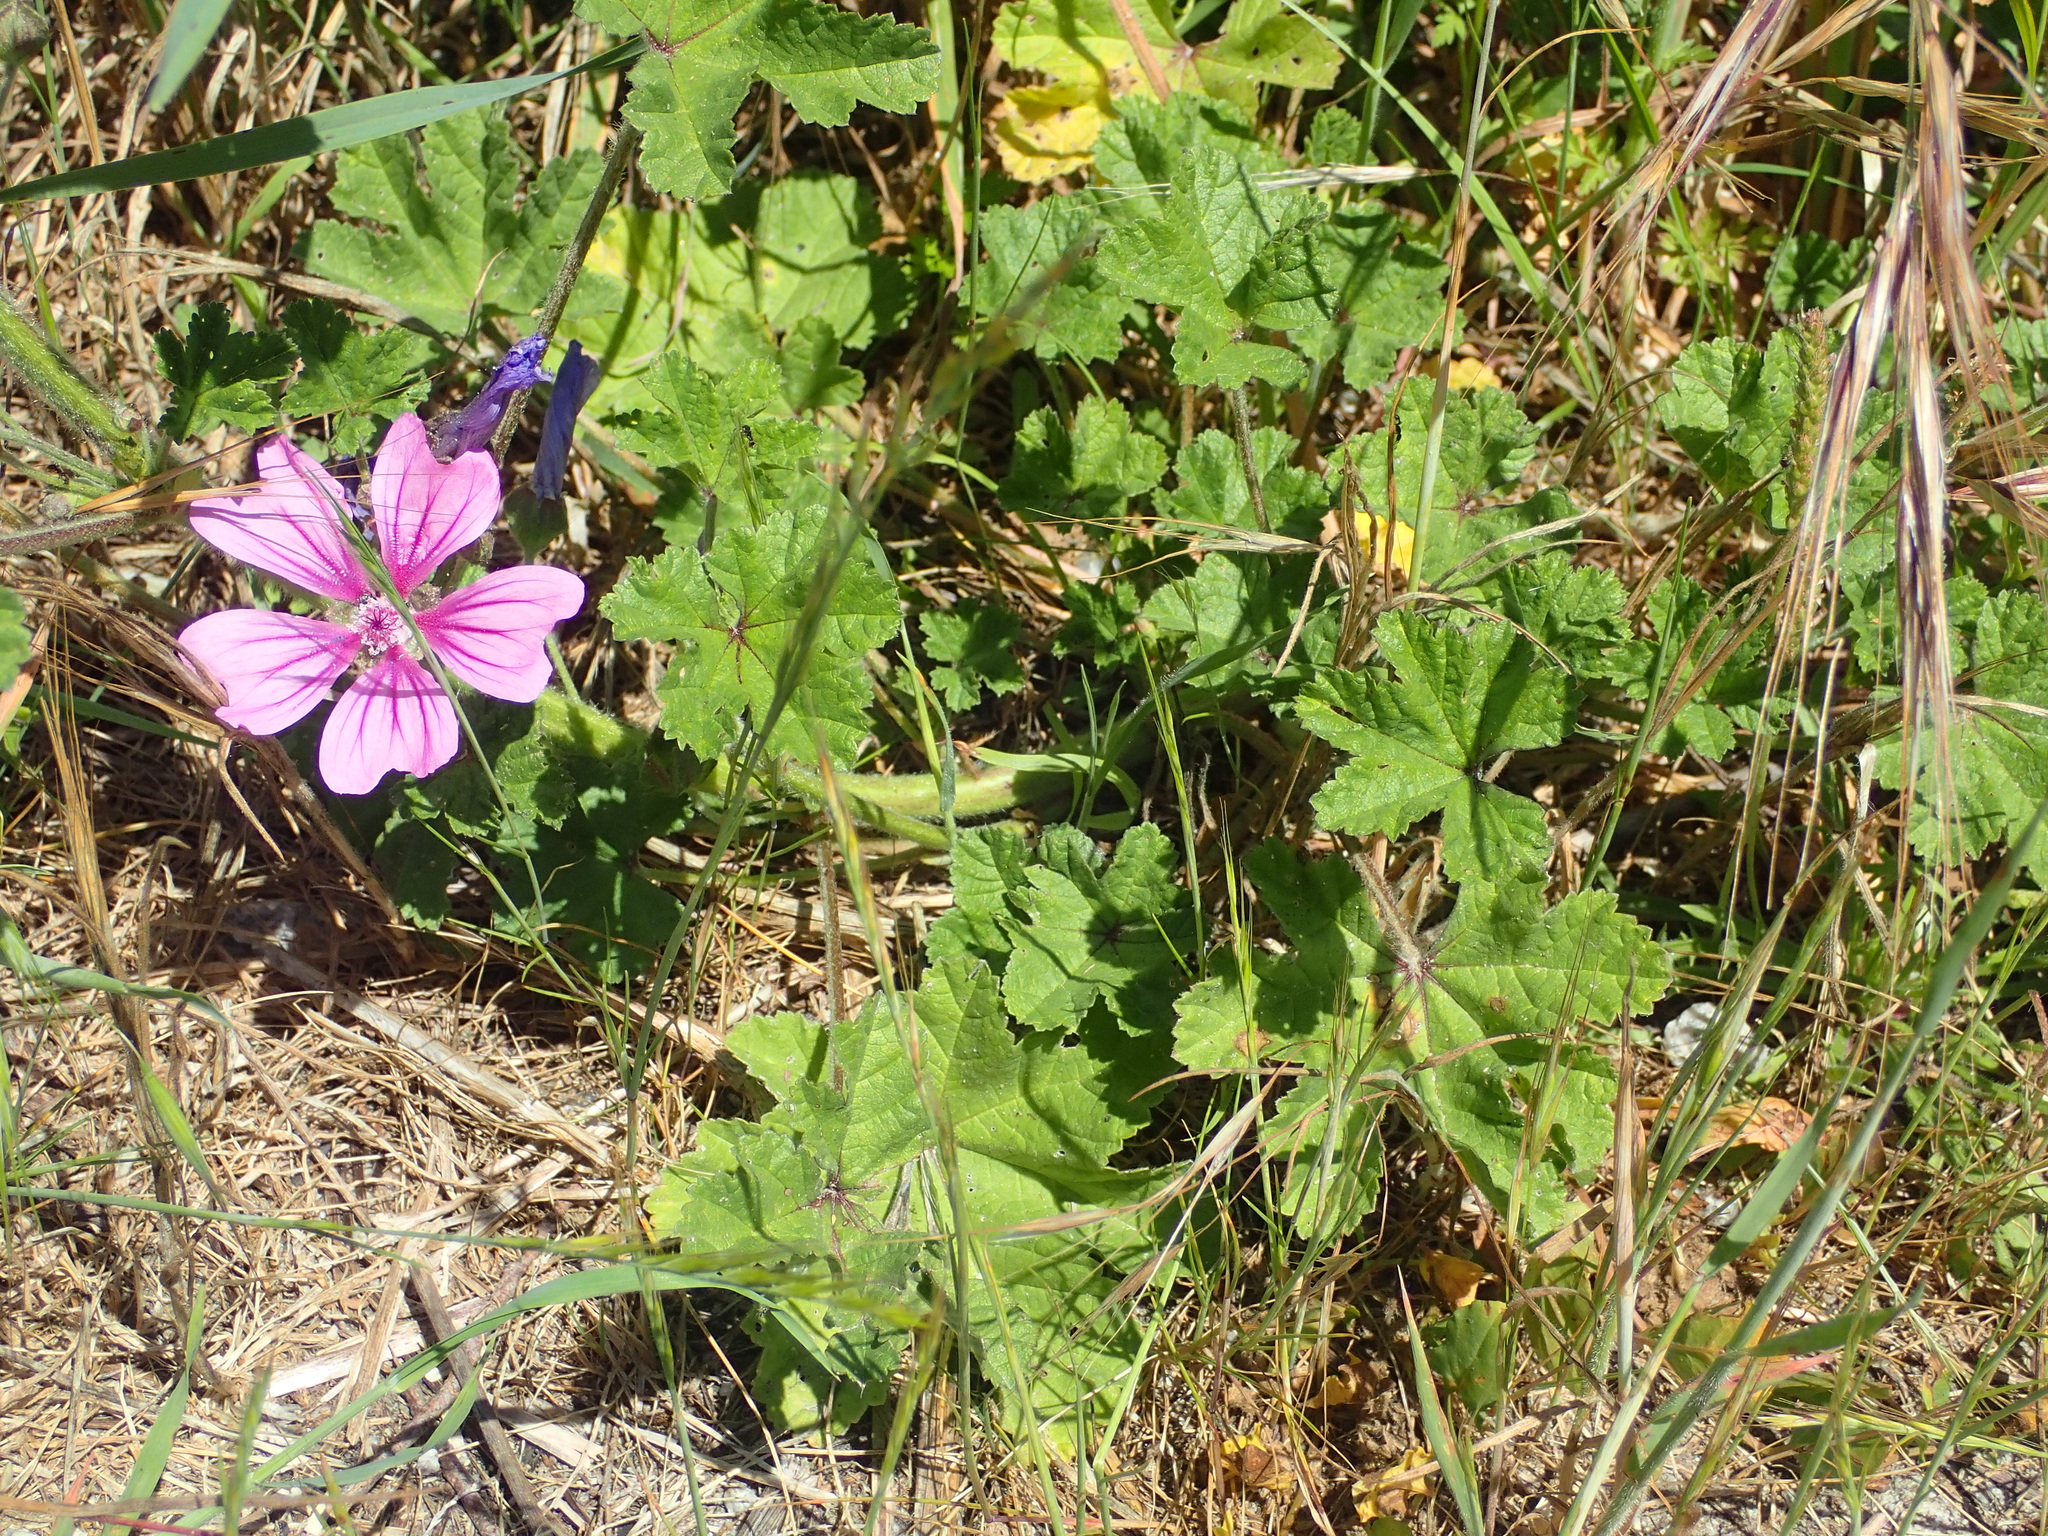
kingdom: Plantae
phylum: Tracheophyta
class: Magnoliopsida
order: Malvales
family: Malvaceae
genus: Malva
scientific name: Malva sylvestris
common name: Common mallow
